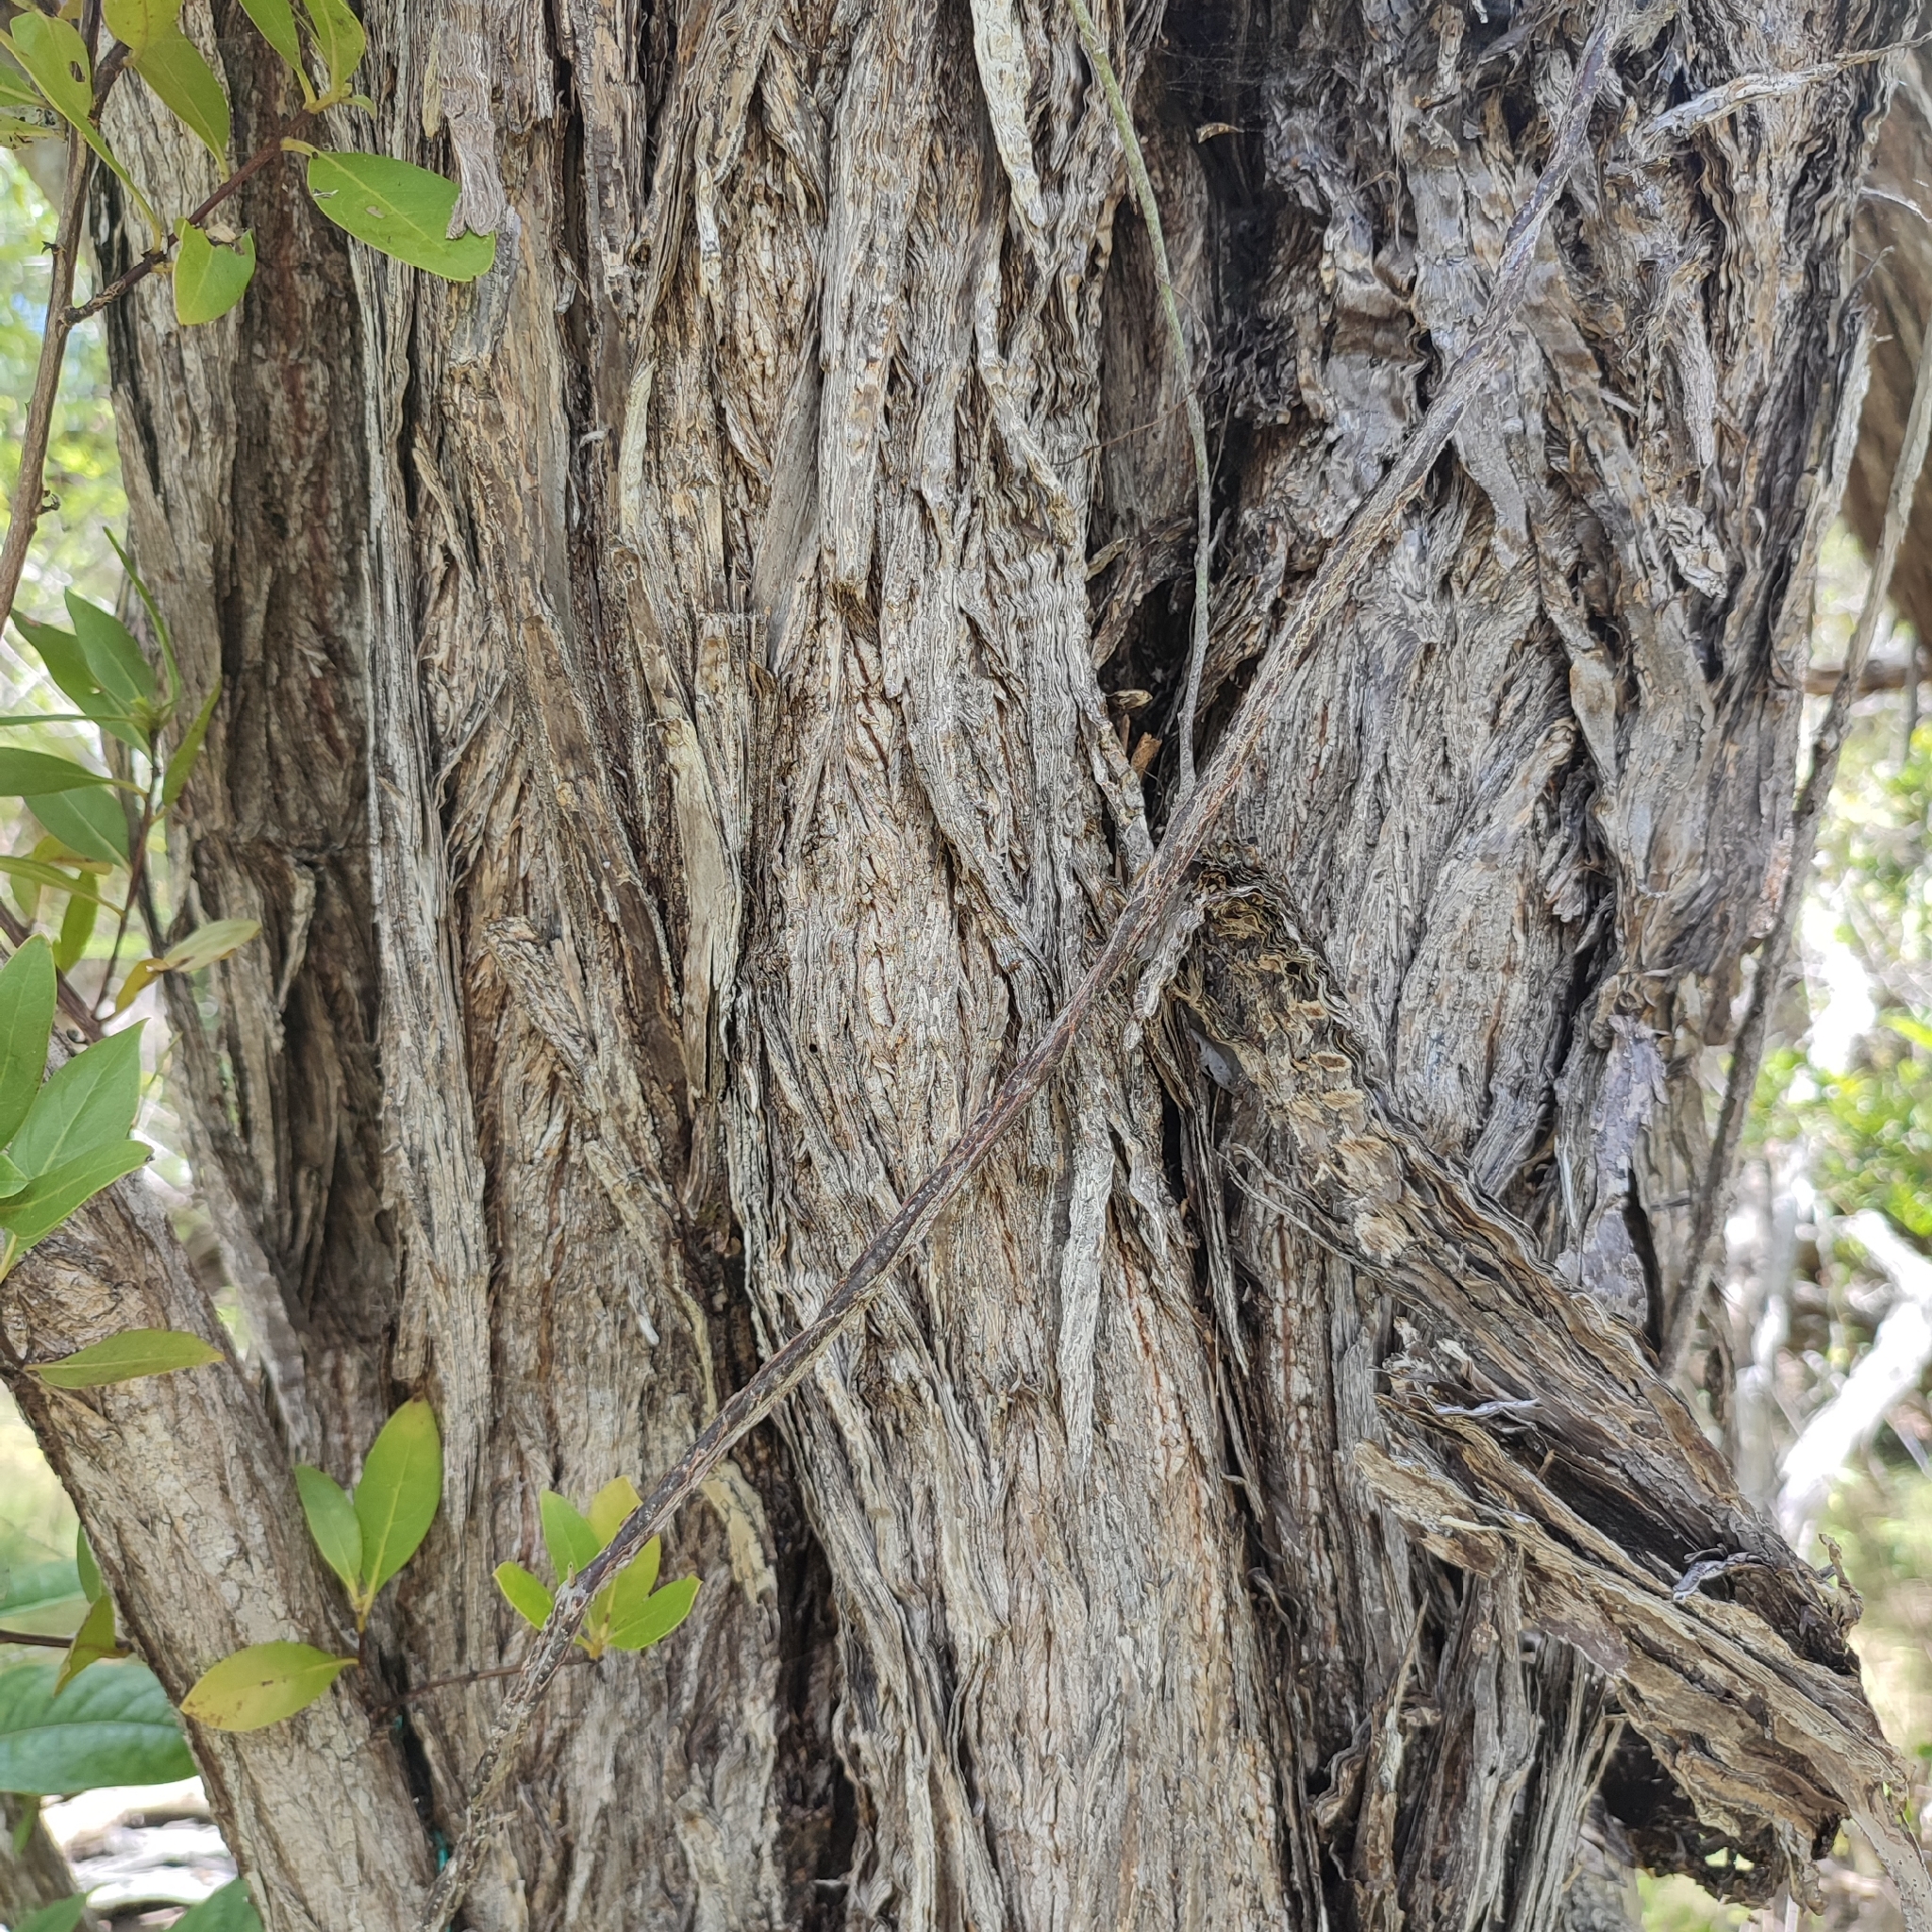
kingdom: Plantae
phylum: Tracheophyta
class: Magnoliopsida
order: Myrtales
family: Combretaceae
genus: Conocarpus
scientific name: Conocarpus erectus
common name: Button mangrove
